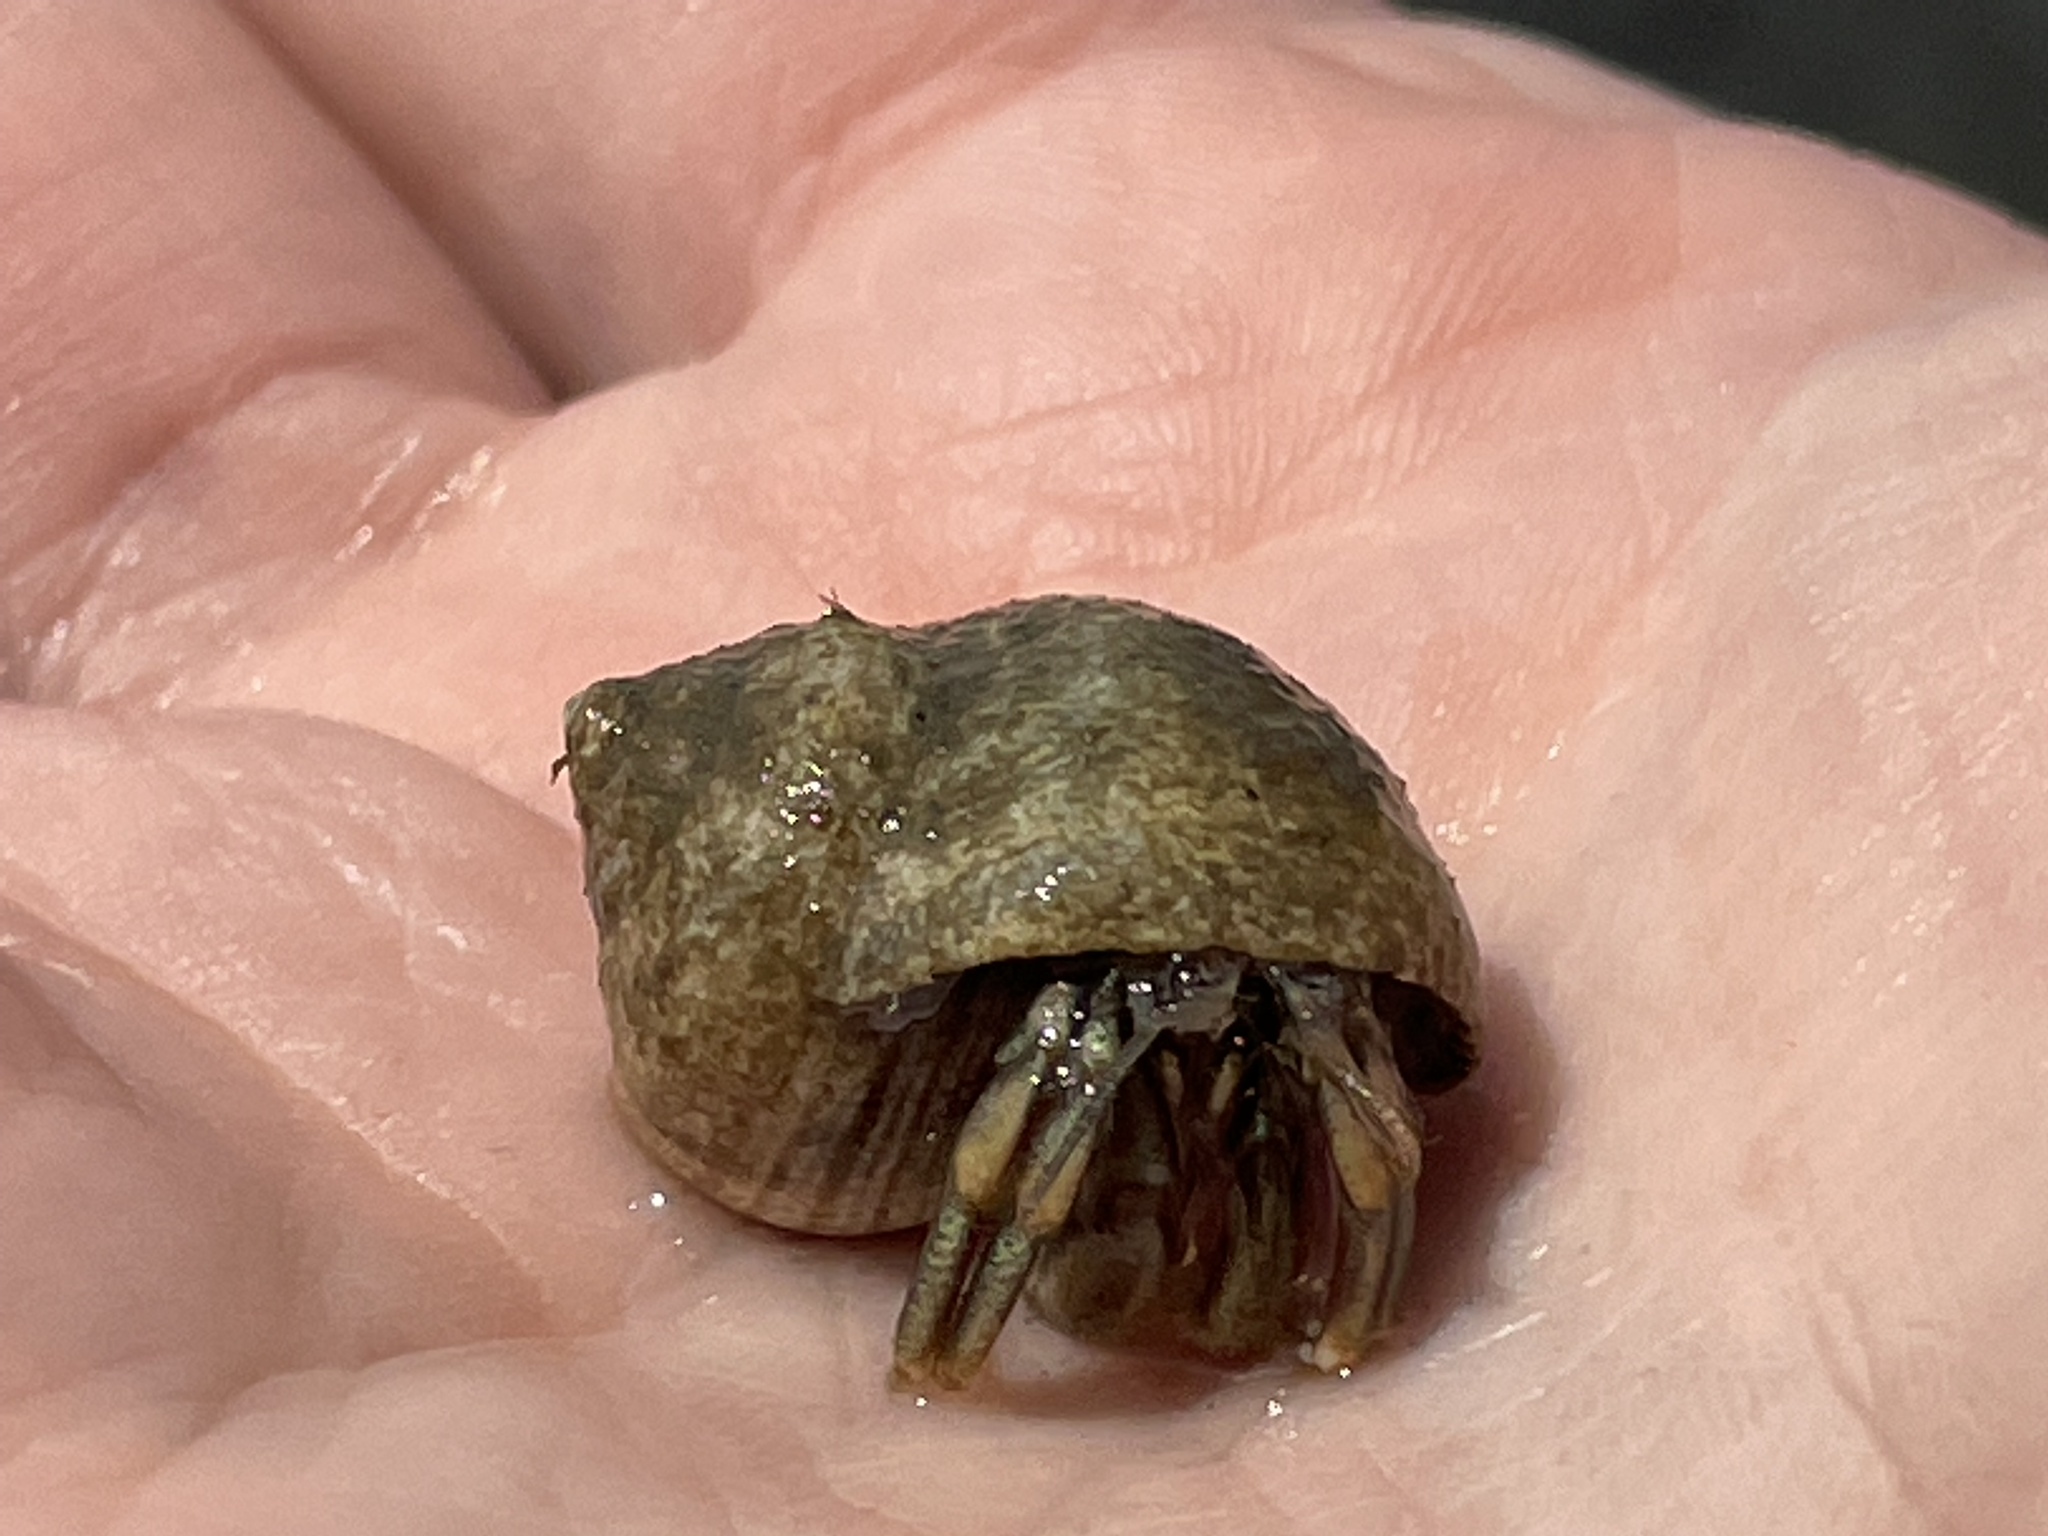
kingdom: Animalia
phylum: Arthropoda
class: Malacostraca
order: Decapoda
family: Paguridae
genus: Pagurus
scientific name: Pagurus longicarpus
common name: Long-armed hermit crab
